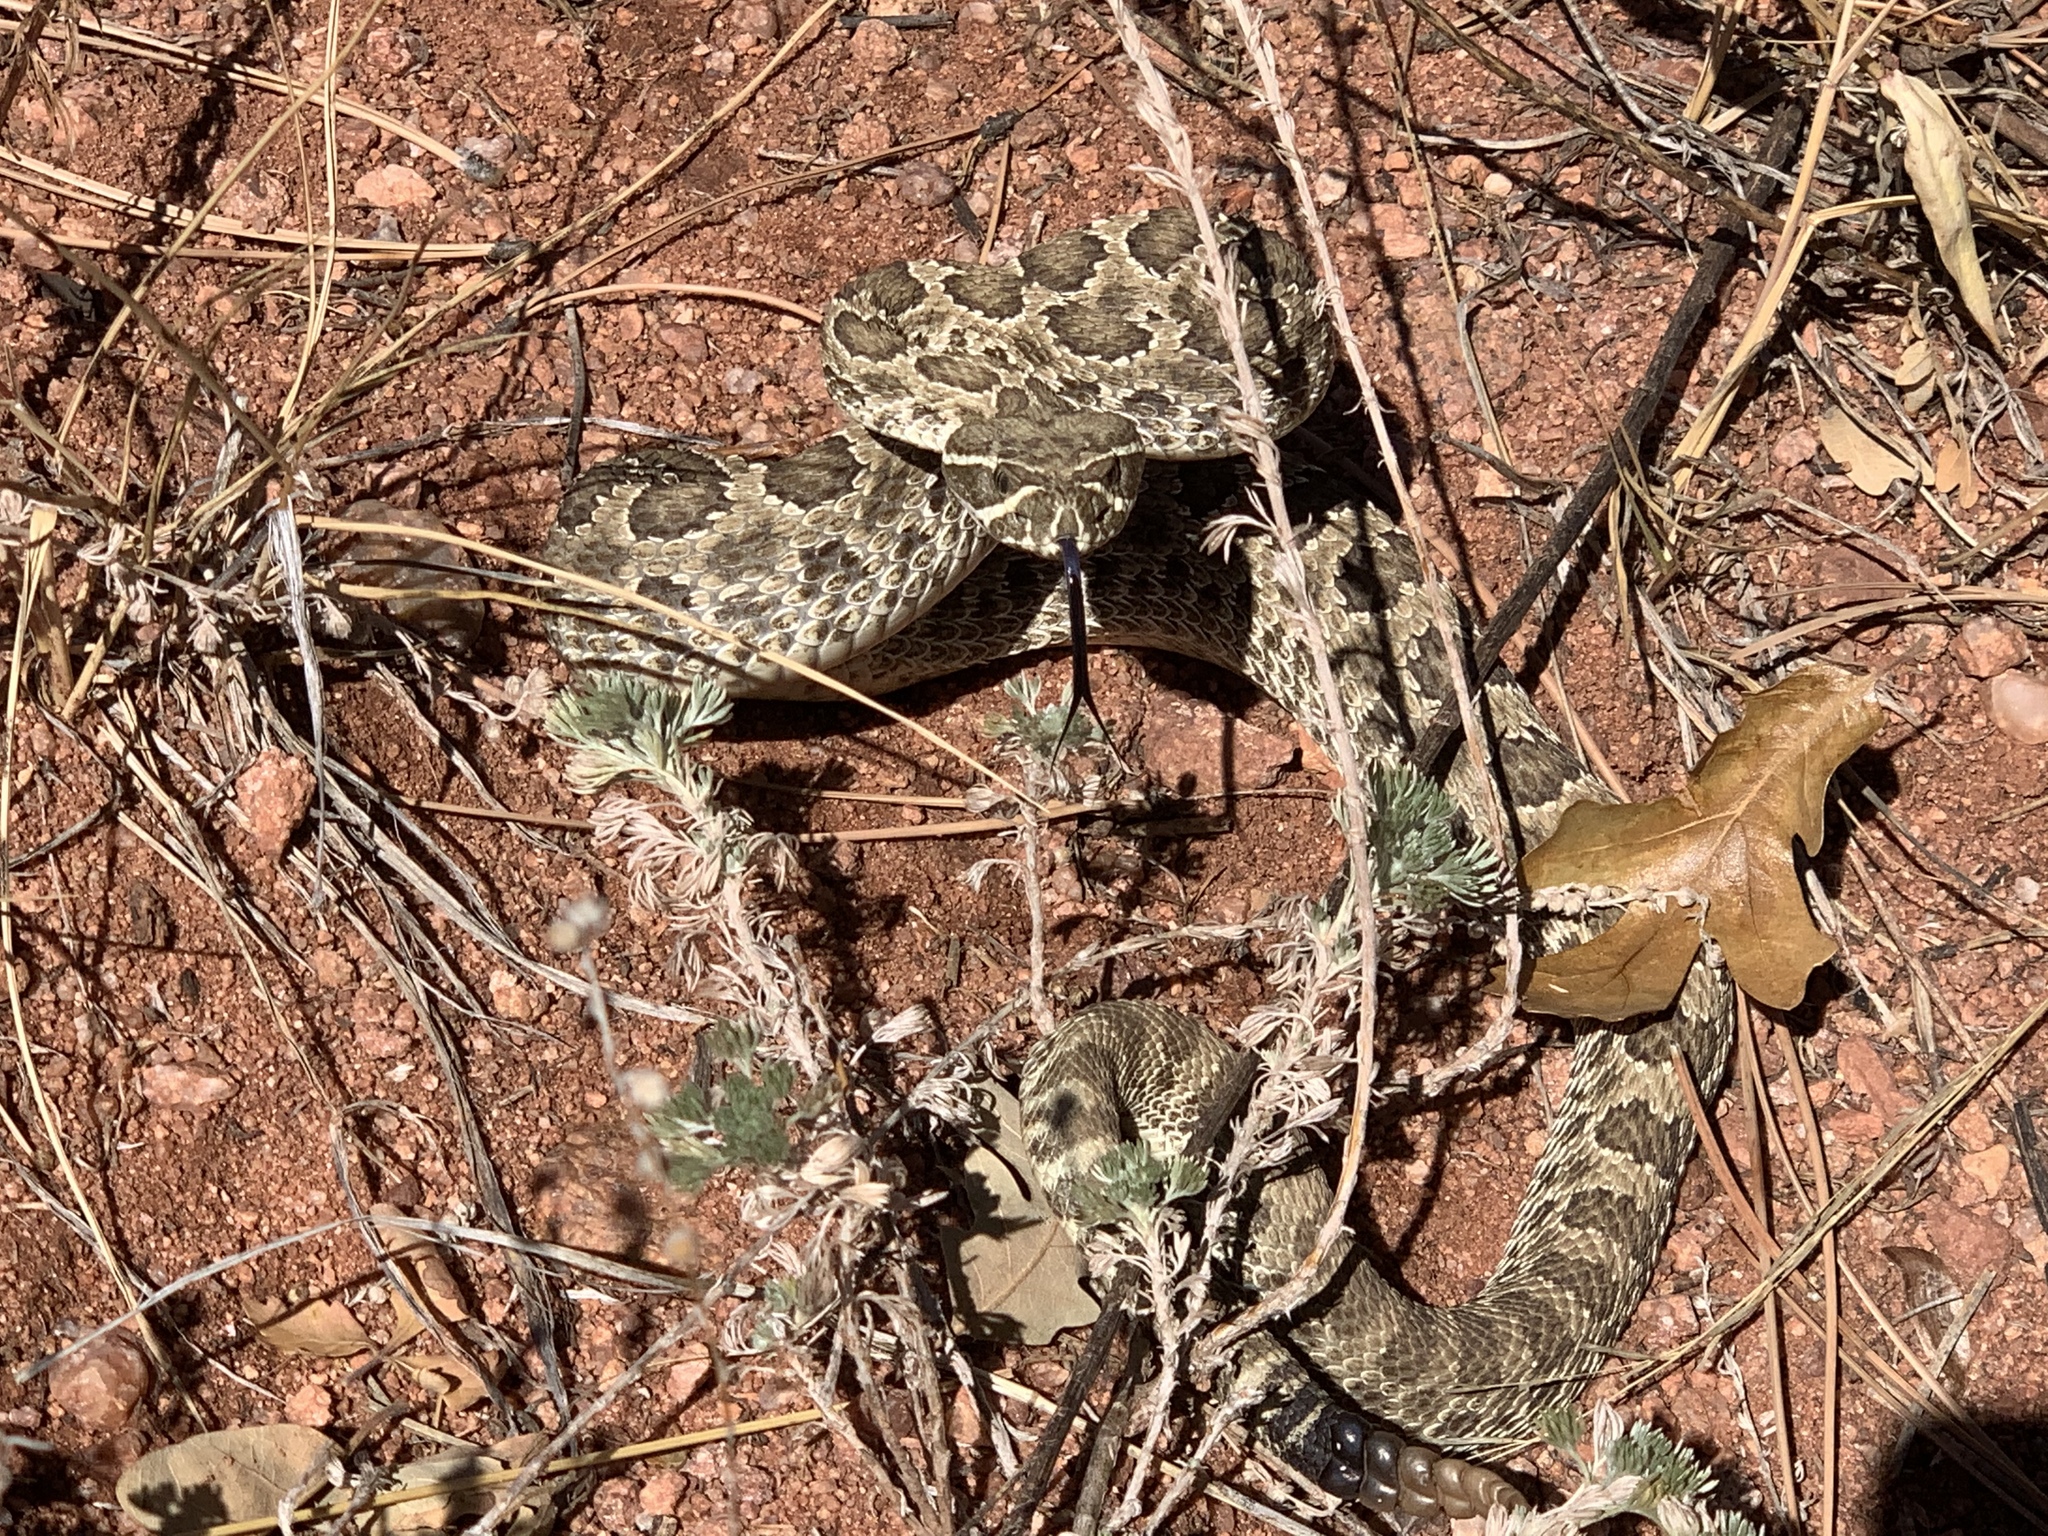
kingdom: Animalia
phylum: Chordata
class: Squamata
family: Viperidae
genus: Crotalus
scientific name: Crotalus viridis
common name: Prairie rattlesnake
